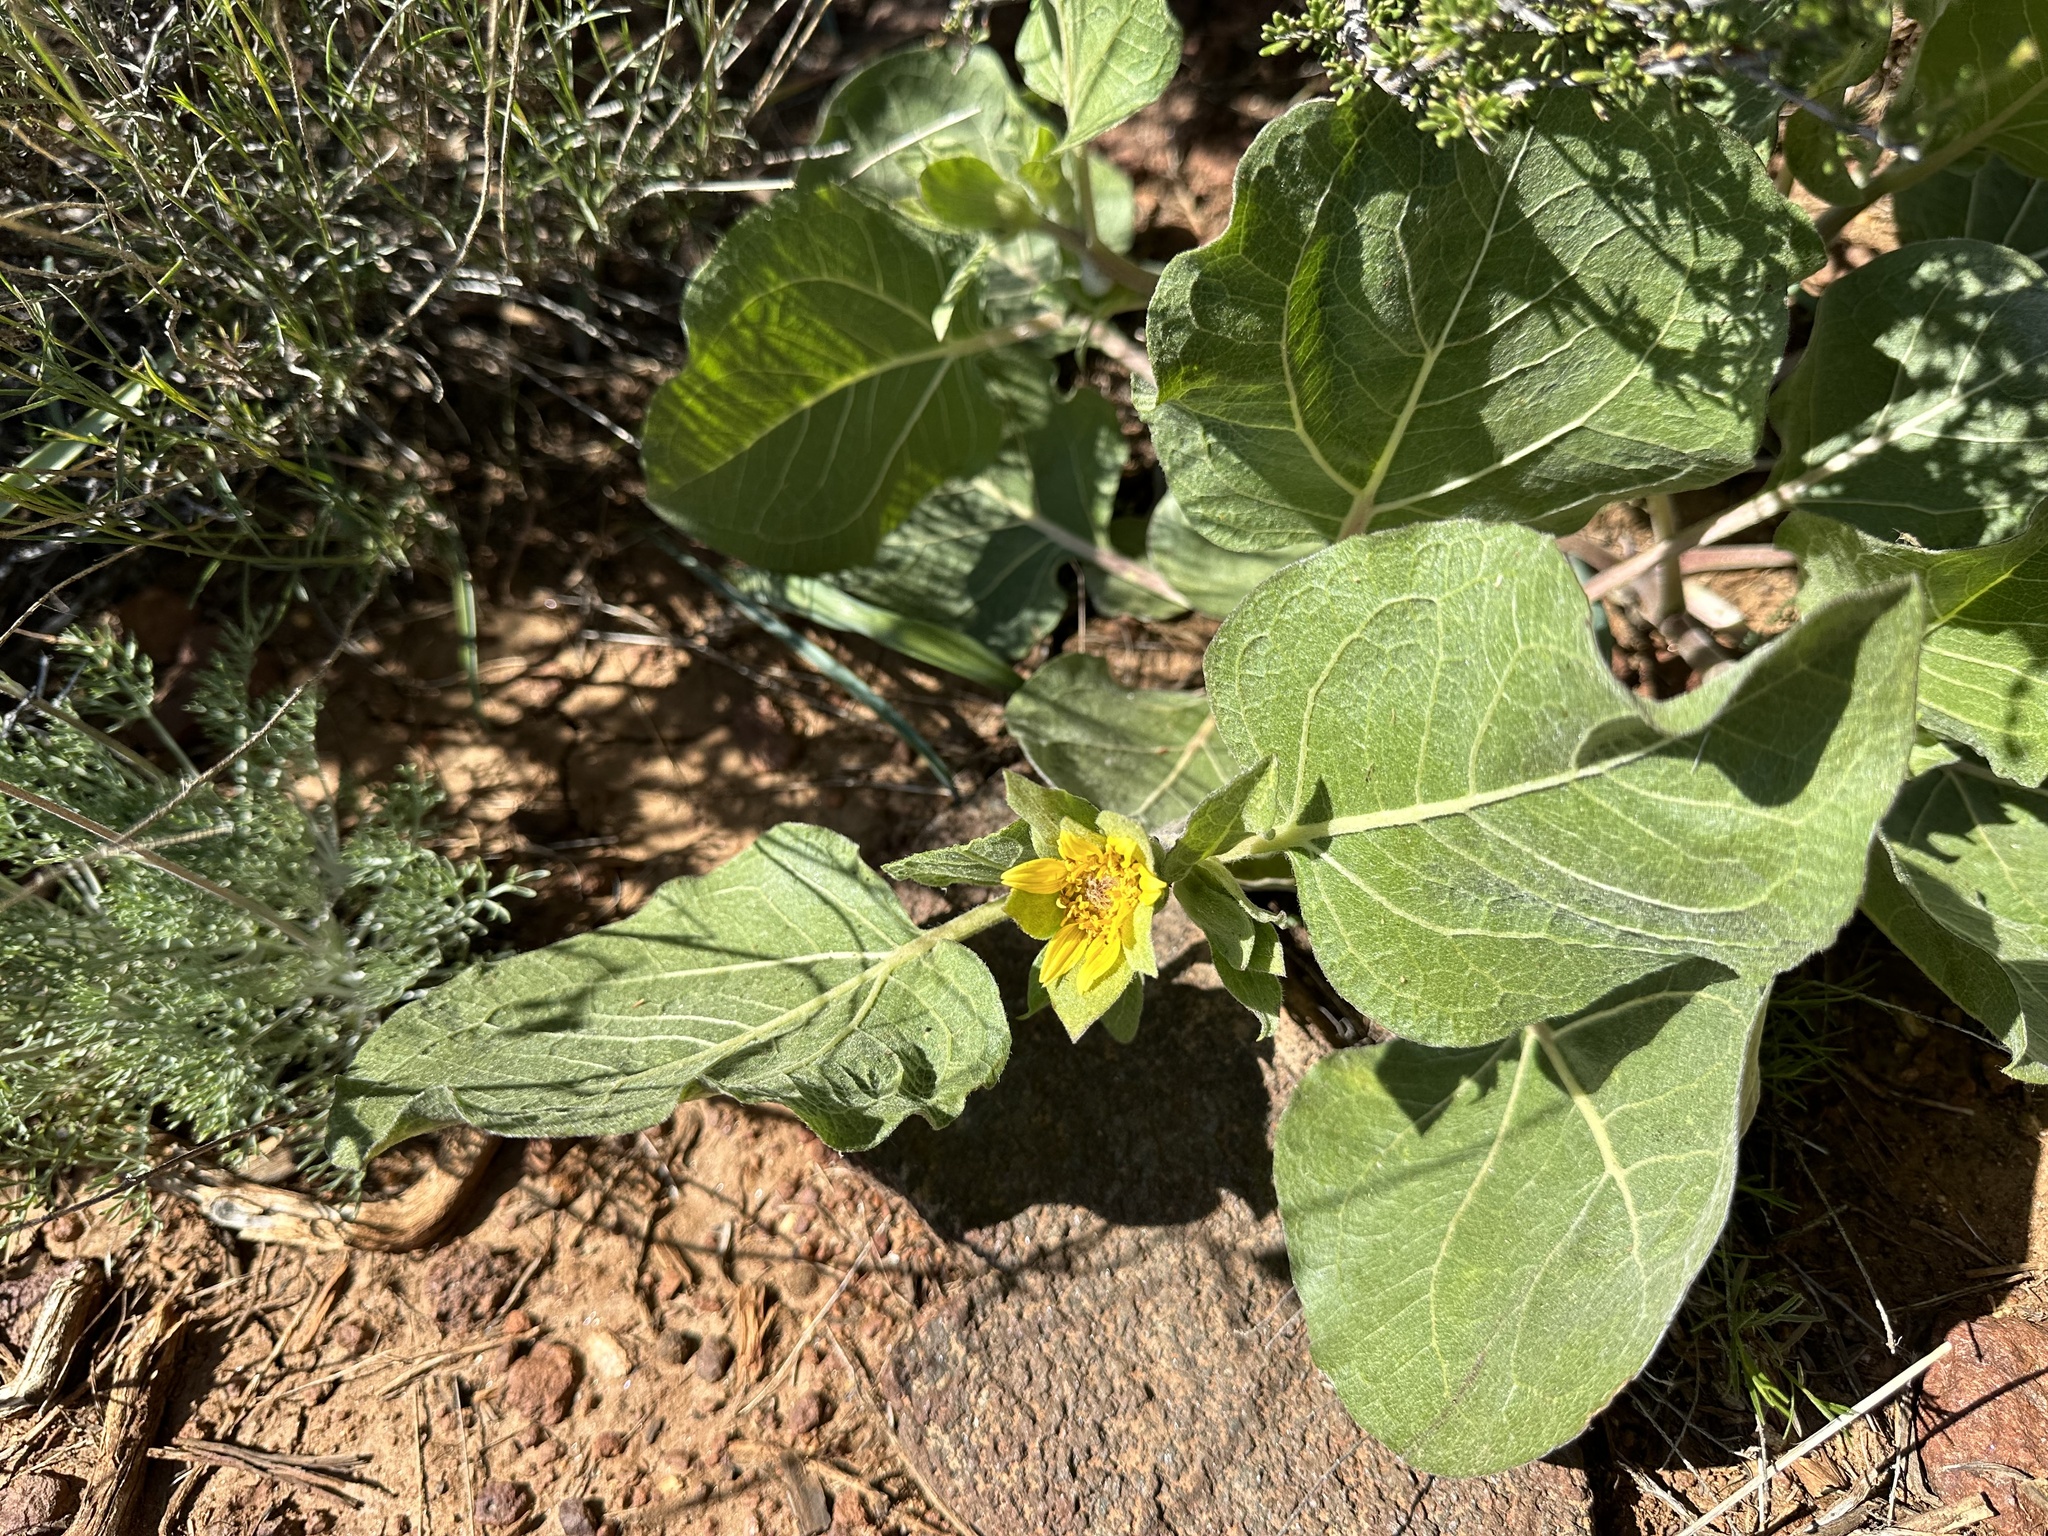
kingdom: Plantae
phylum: Tracheophyta
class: Magnoliopsida
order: Asterales
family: Asteraceae
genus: Agnorhiza
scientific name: Agnorhiza ovata
